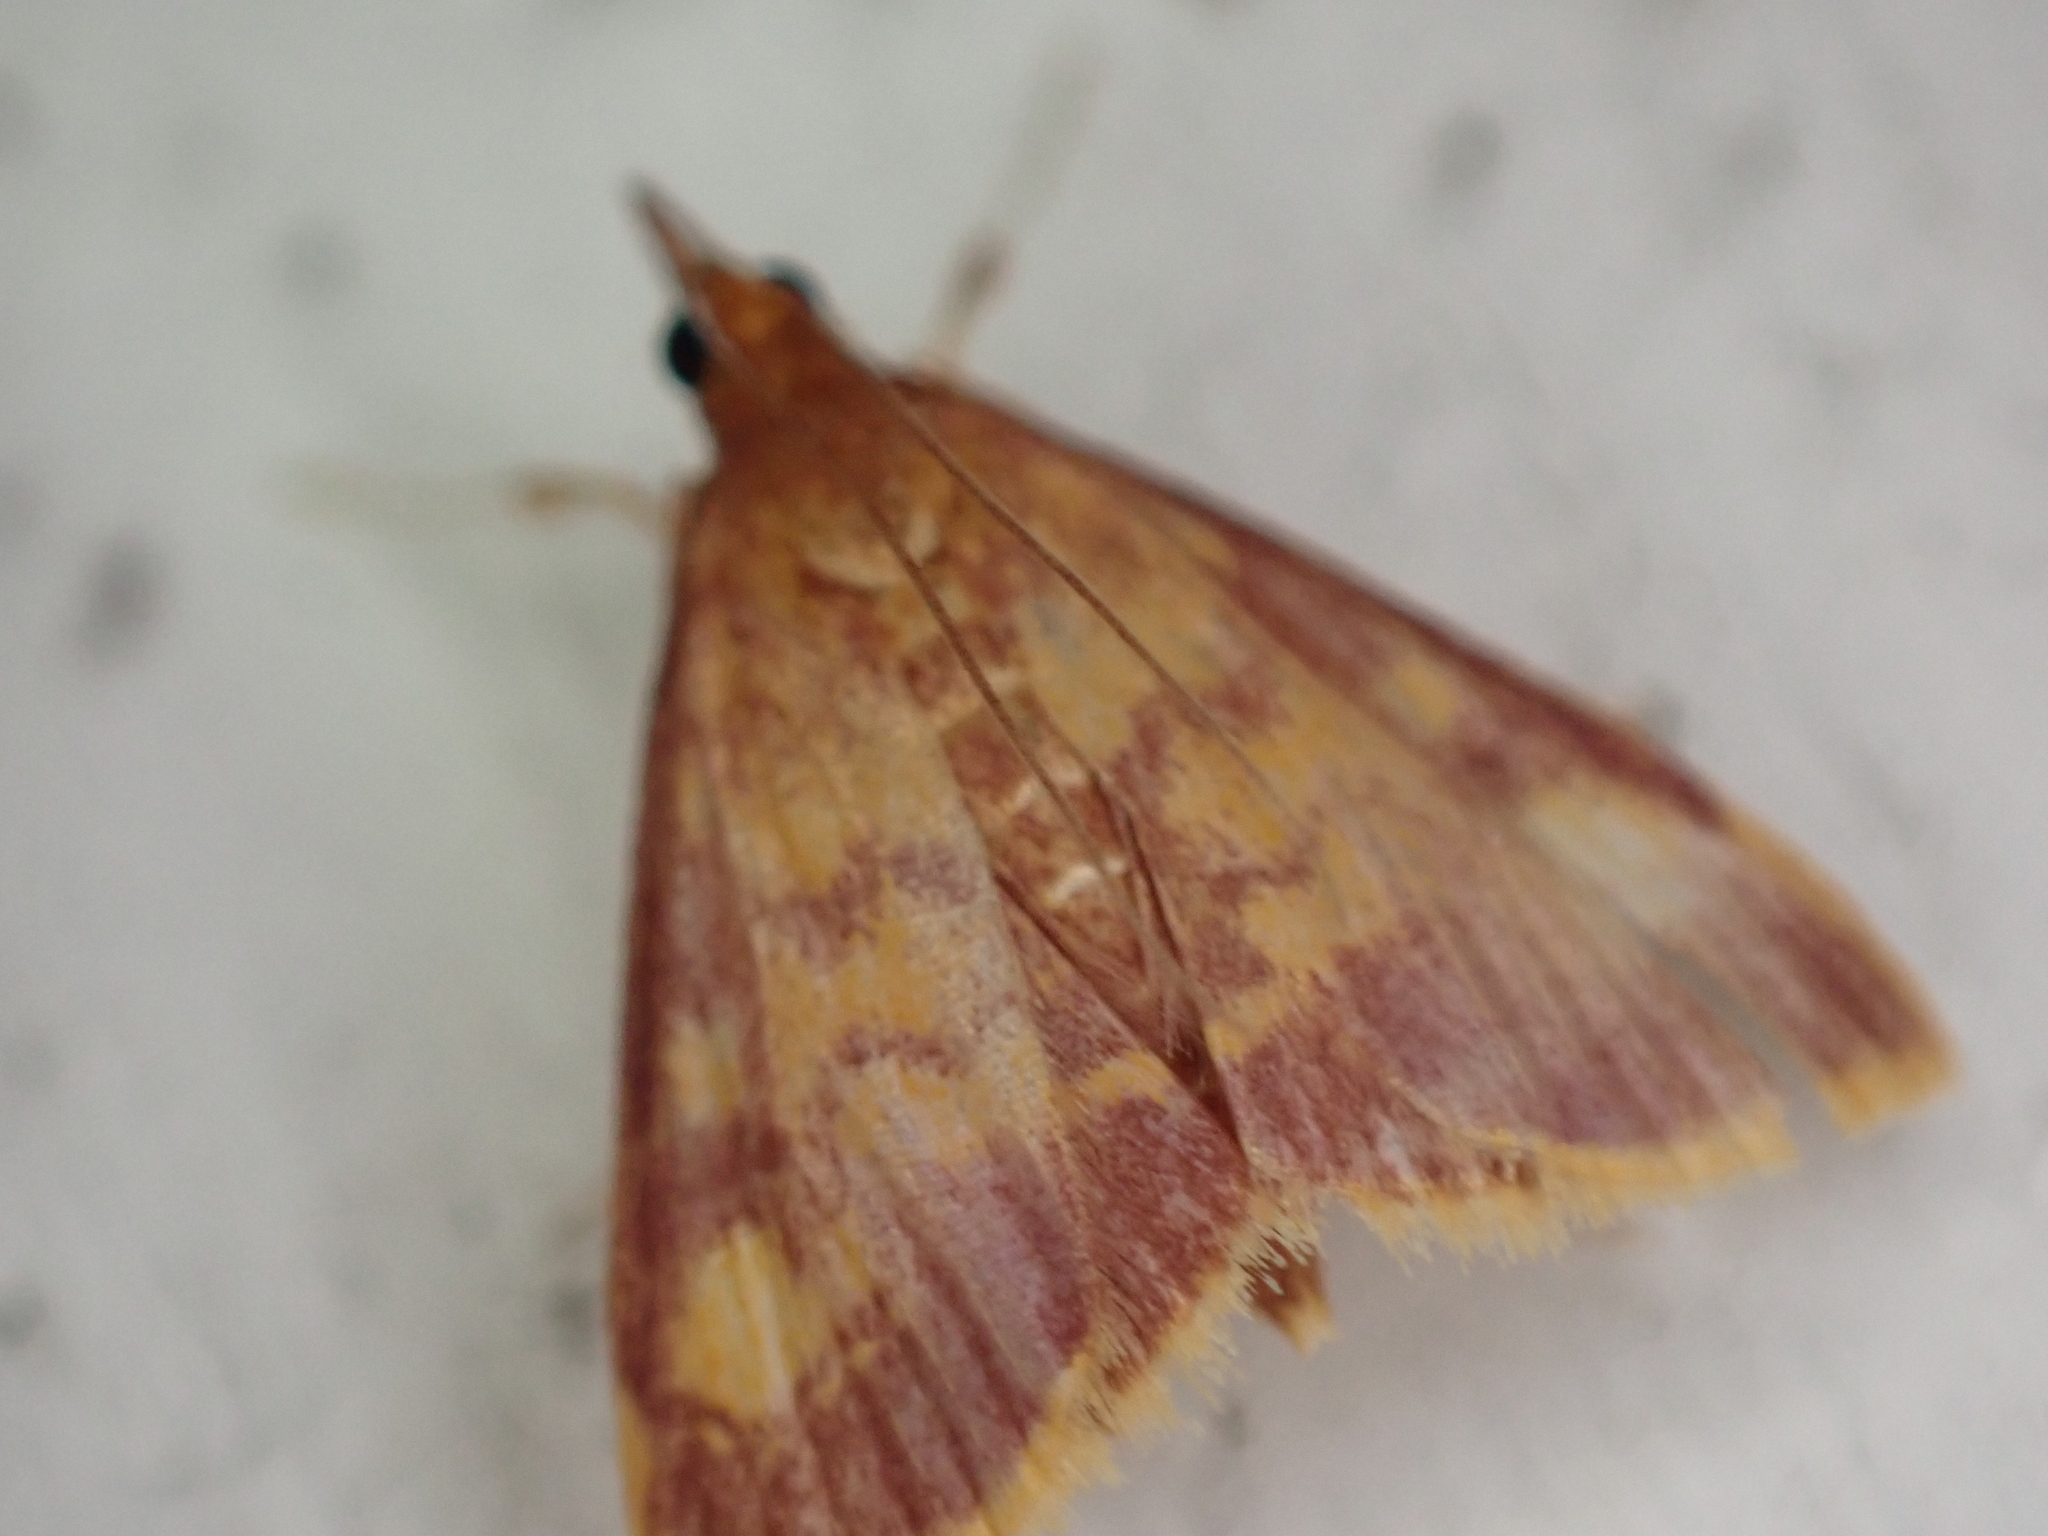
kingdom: Animalia
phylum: Arthropoda
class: Insecta
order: Lepidoptera
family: Crambidae
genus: Pyrausta
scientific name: Pyrausta acrionalis
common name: Mint-loving pyrausta moth
